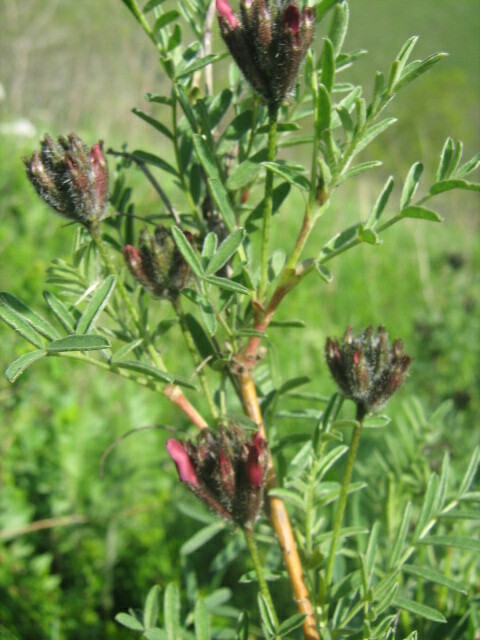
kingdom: Plantae
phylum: Tracheophyta
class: Magnoliopsida
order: Fabales
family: Fabaceae
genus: Astragalus
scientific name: Astragalus cornutus
